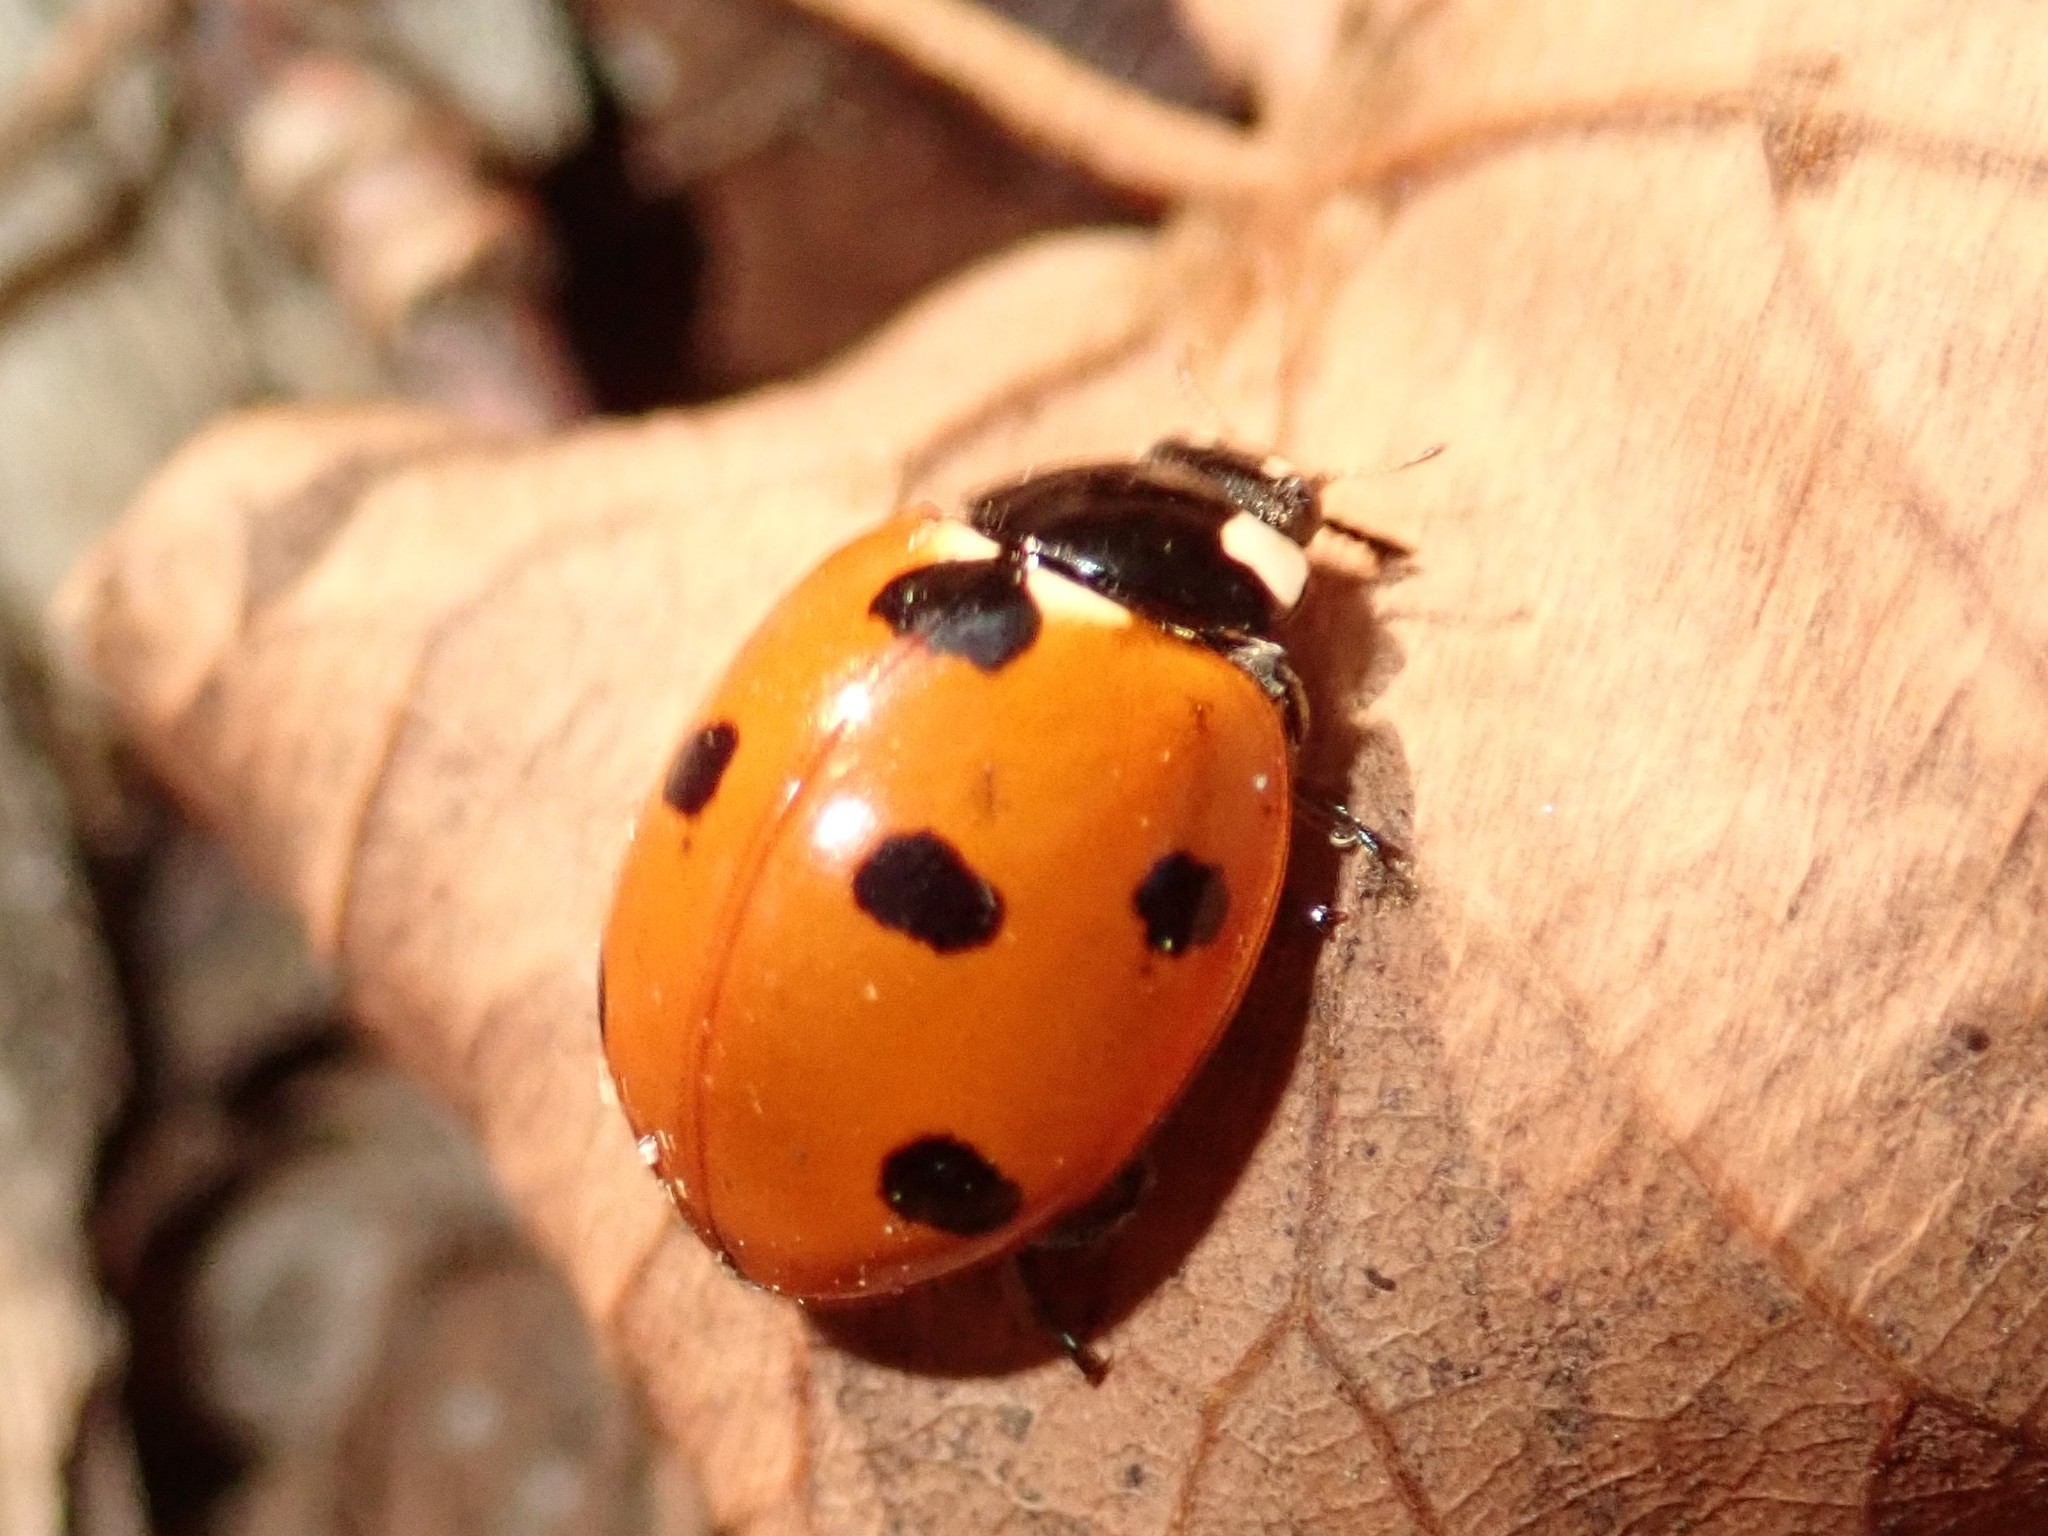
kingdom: Animalia
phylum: Arthropoda
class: Insecta
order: Coleoptera
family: Coccinellidae
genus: Coccinella
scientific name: Coccinella septempunctata
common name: Sevenspotted lady beetle
